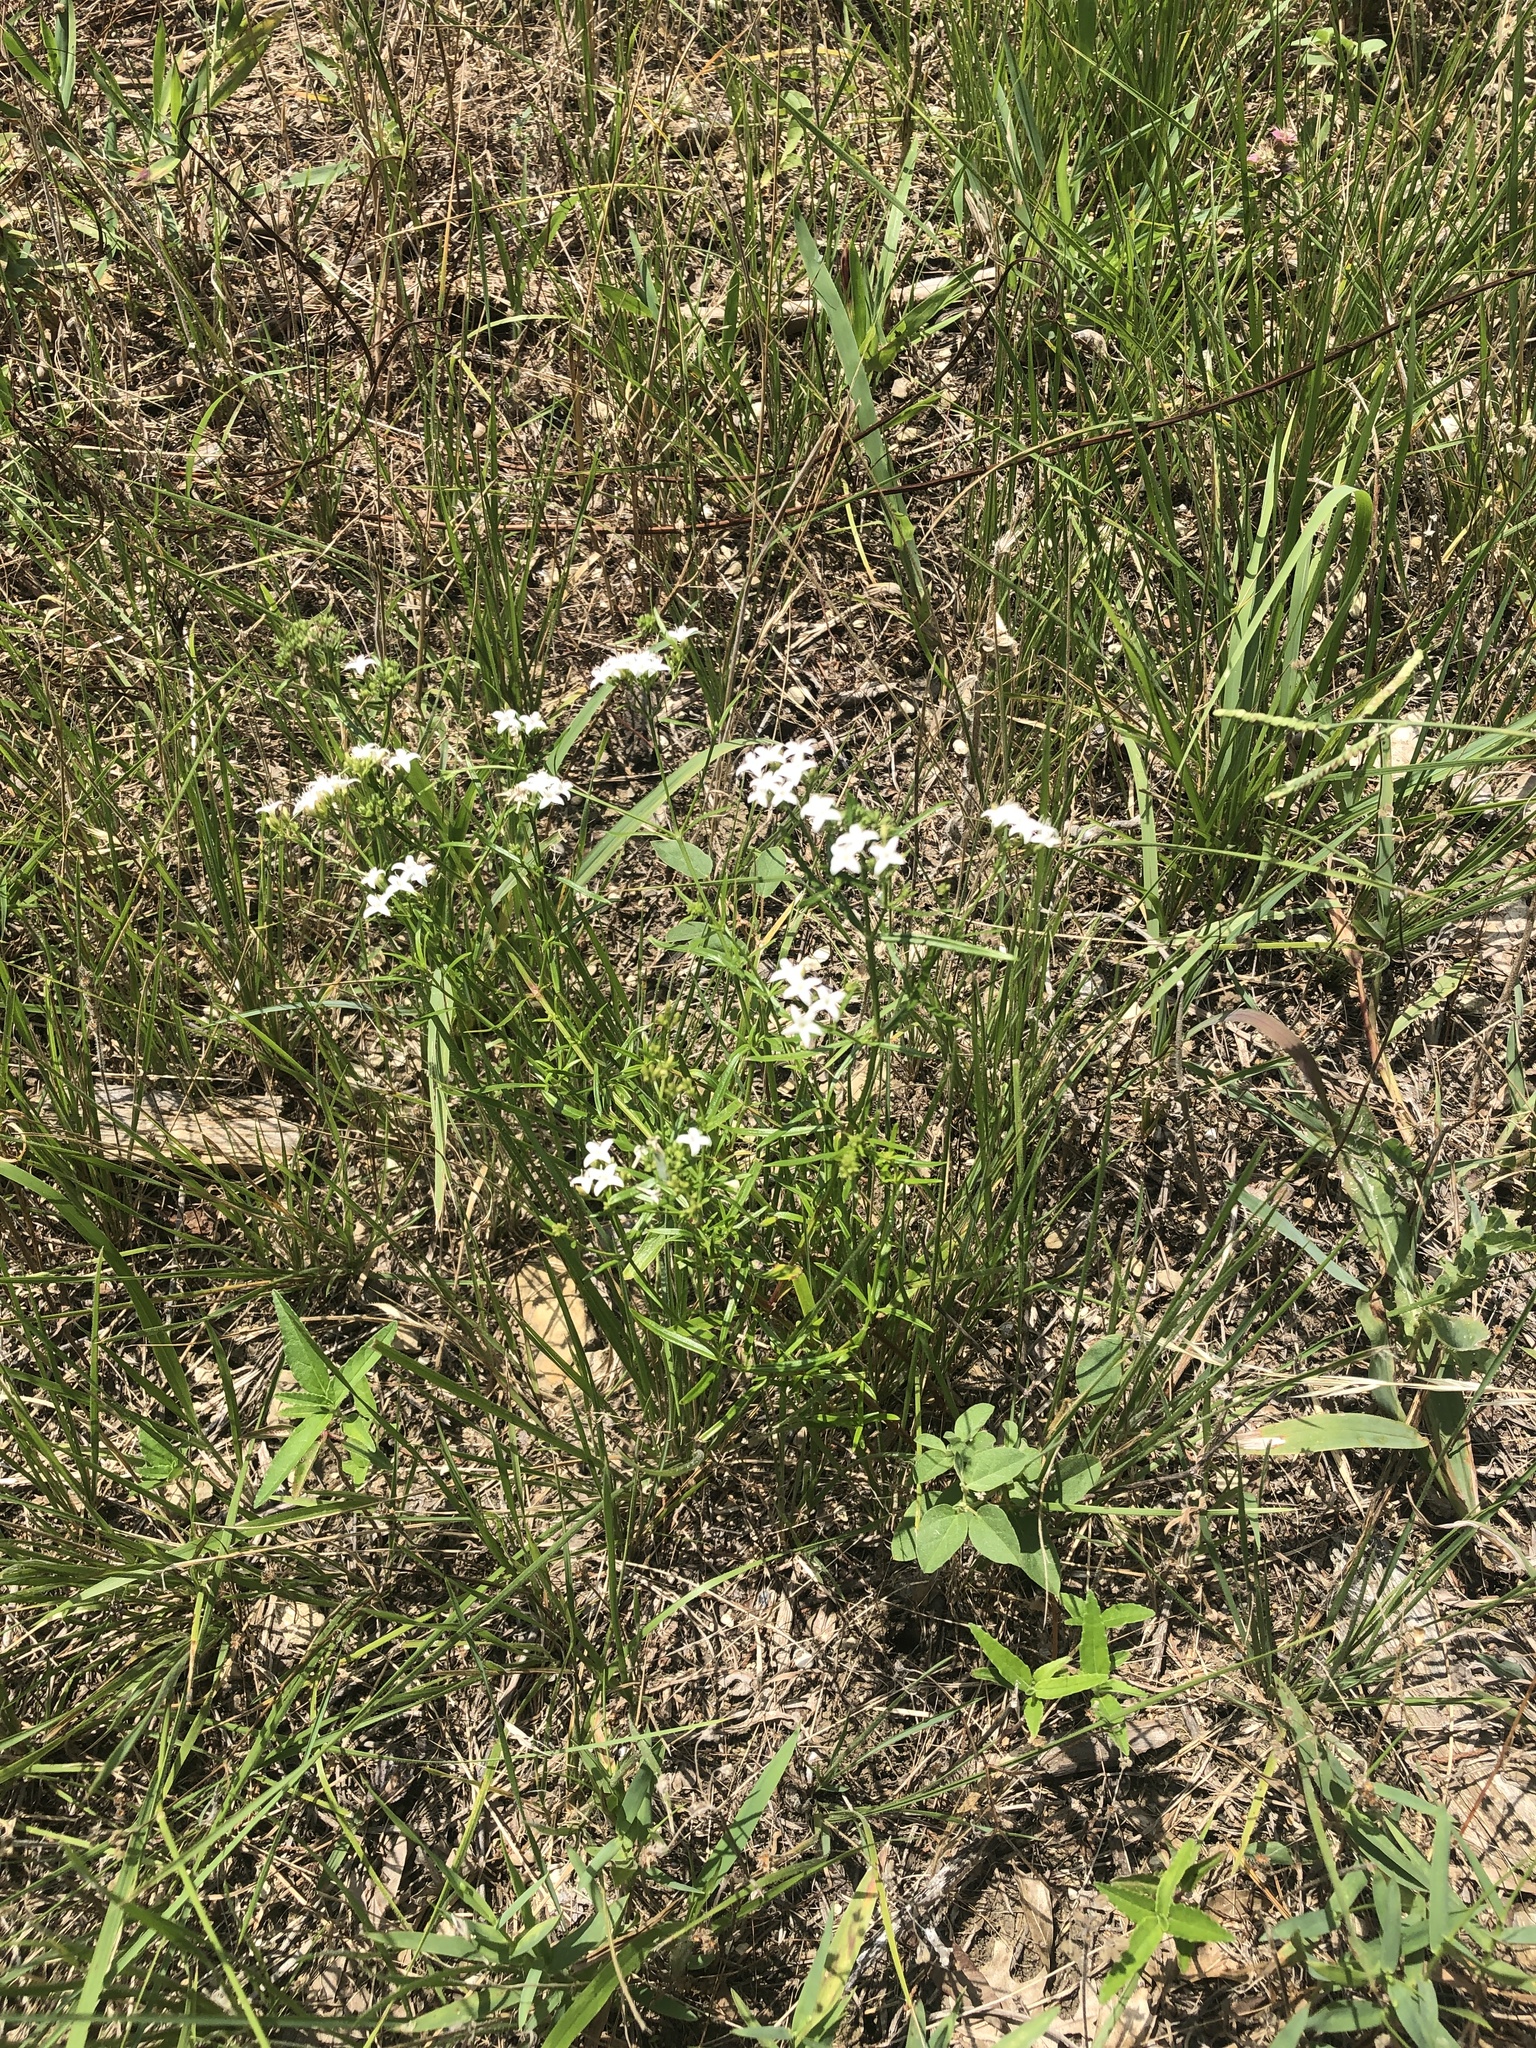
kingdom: Plantae
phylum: Tracheophyta
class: Magnoliopsida
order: Gentianales
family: Rubiaceae
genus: Stenaria
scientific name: Stenaria nigricans
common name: Diamondflowers
